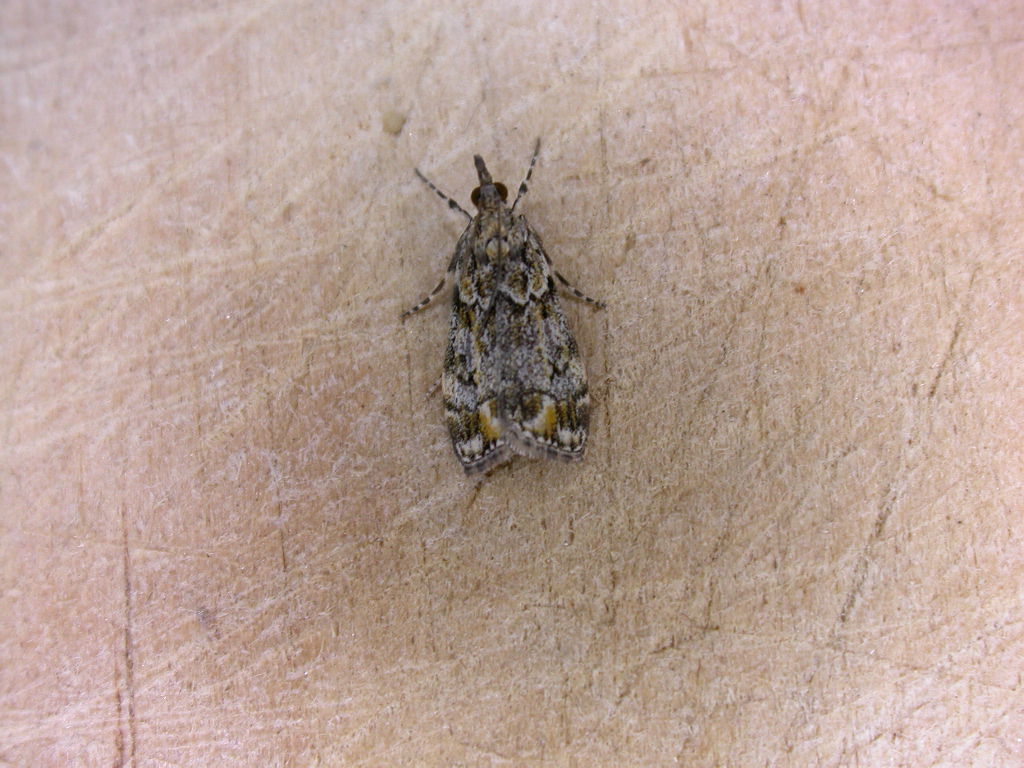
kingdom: Animalia
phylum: Arthropoda
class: Insecta
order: Lepidoptera
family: Crambidae
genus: Eudonia
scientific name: Eudonia minualis
